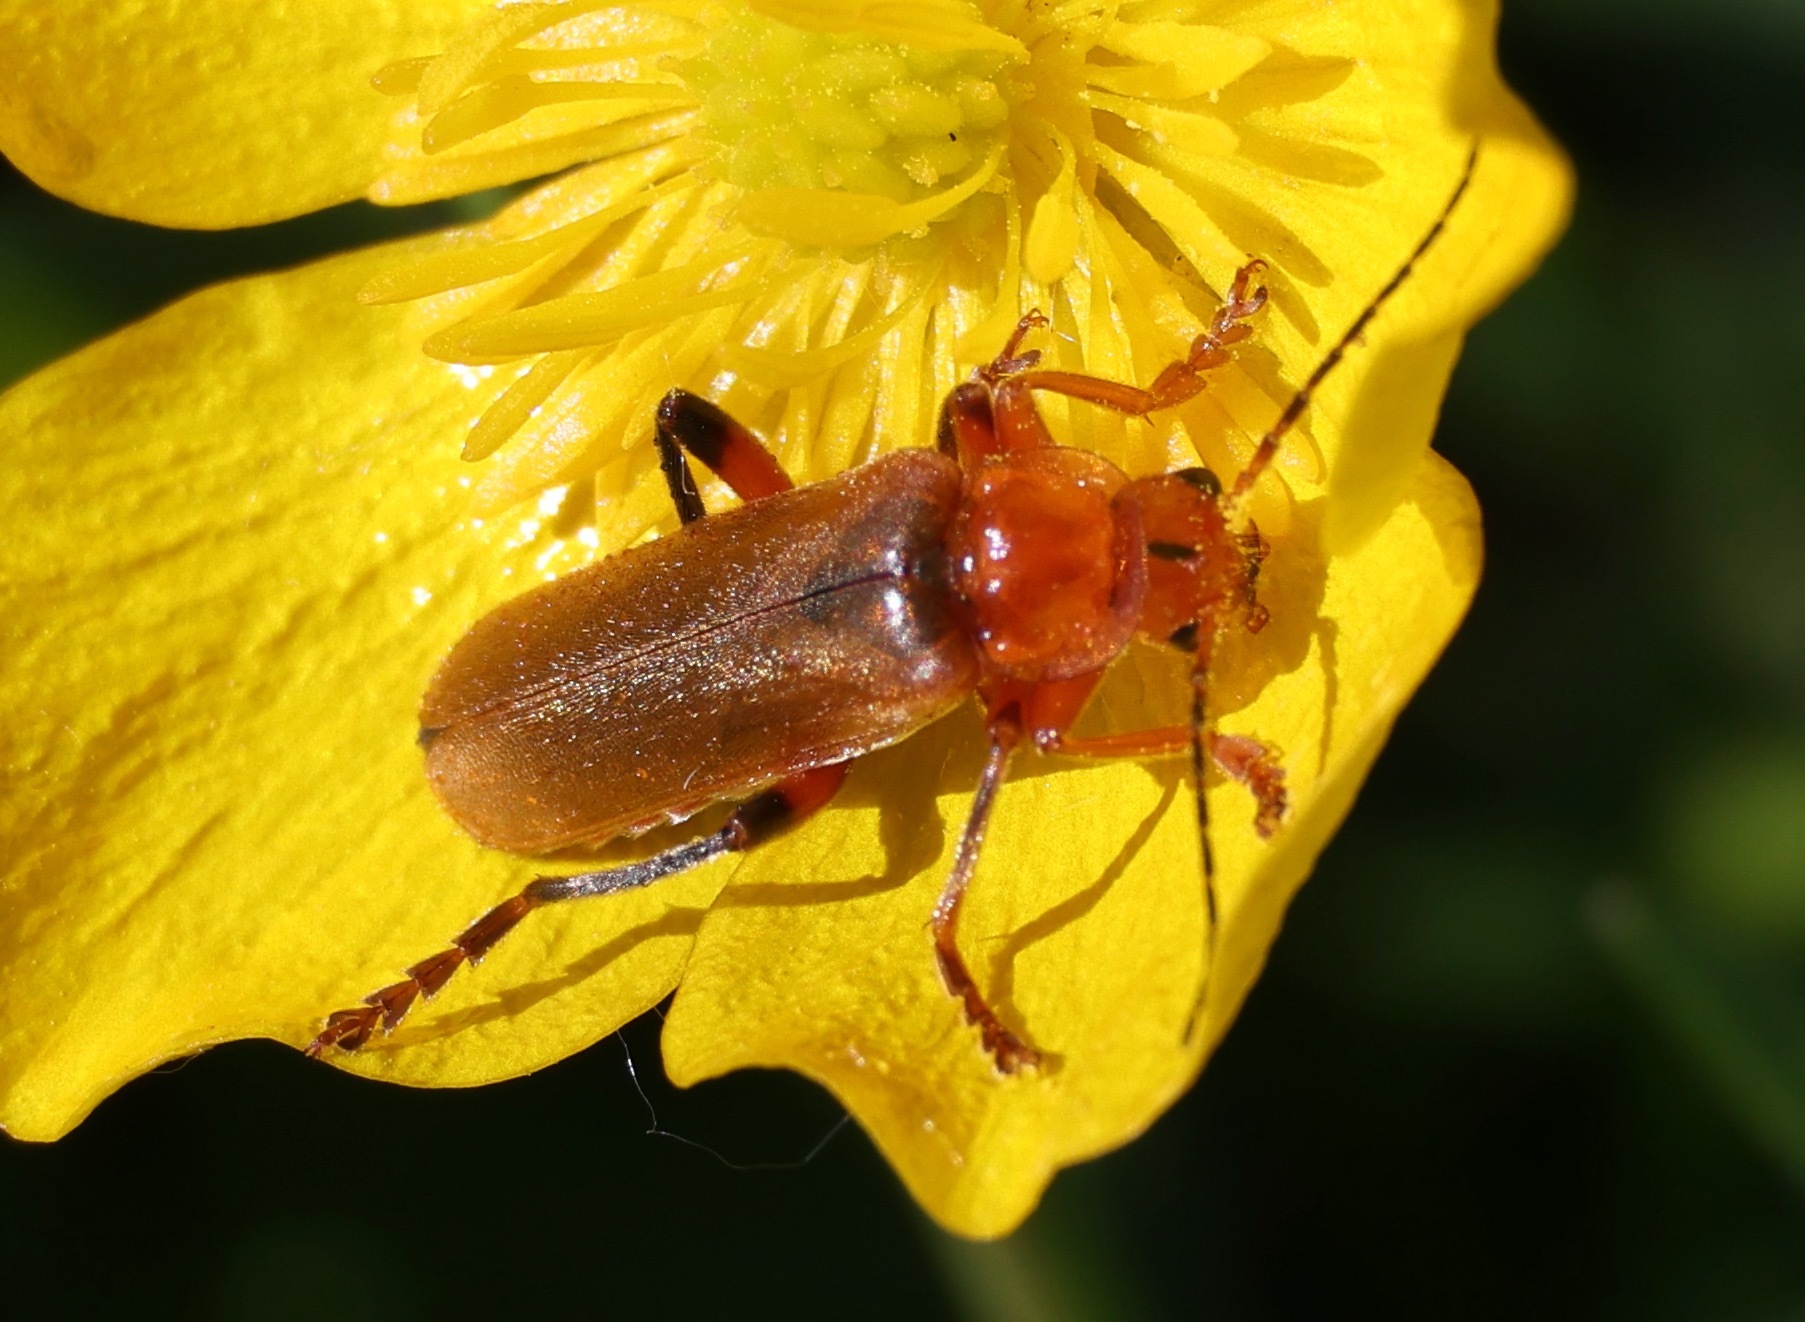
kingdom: Animalia
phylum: Arthropoda
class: Insecta
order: Coleoptera
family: Cantharidae
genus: Cantharis
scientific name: Cantharis livida
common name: Livid soldier beetle
